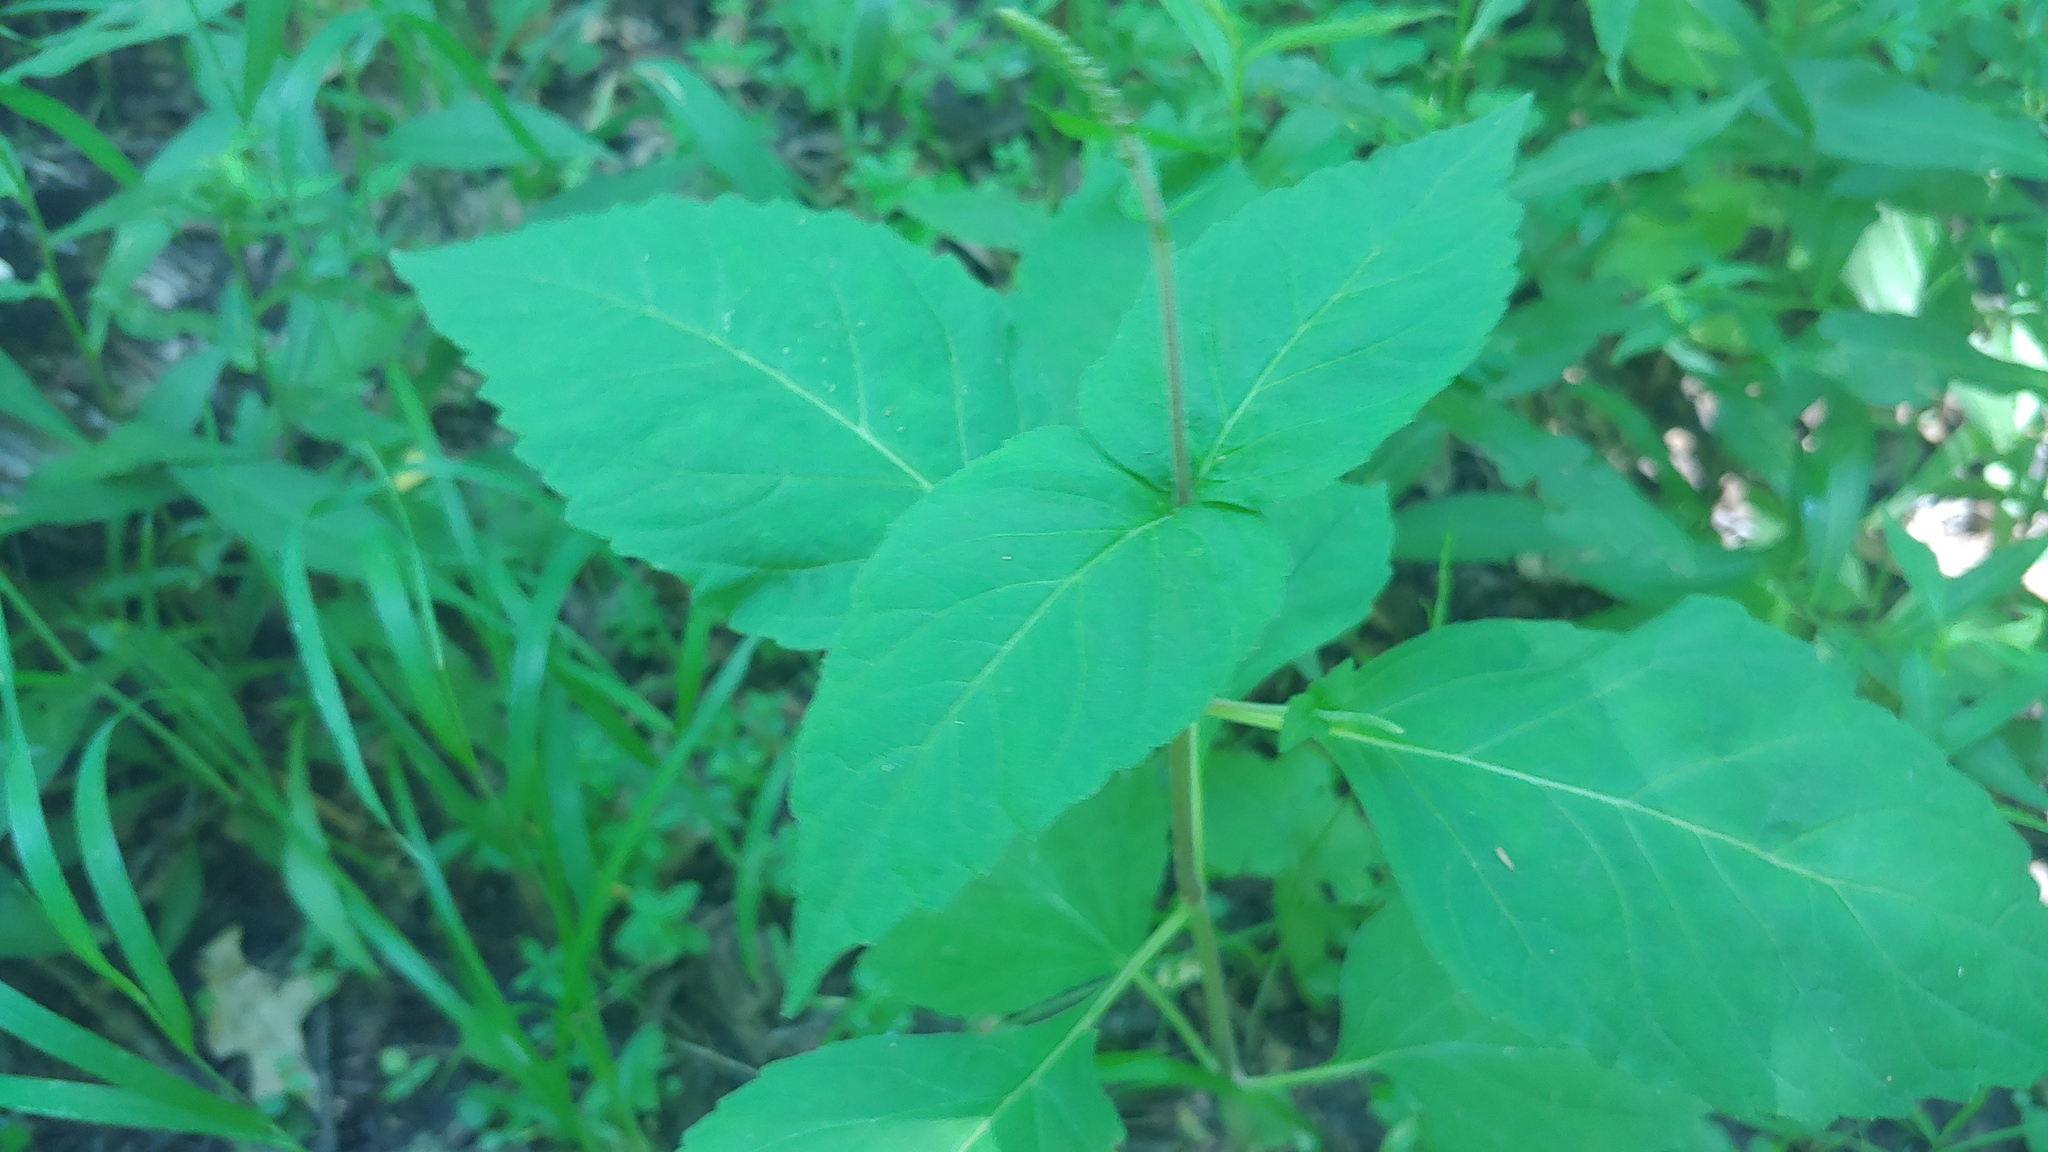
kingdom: Plantae
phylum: Tracheophyta
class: Magnoliopsida
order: Lamiales
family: Phrymaceae
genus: Phryma
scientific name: Phryma leptostachya
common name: American lopseed
